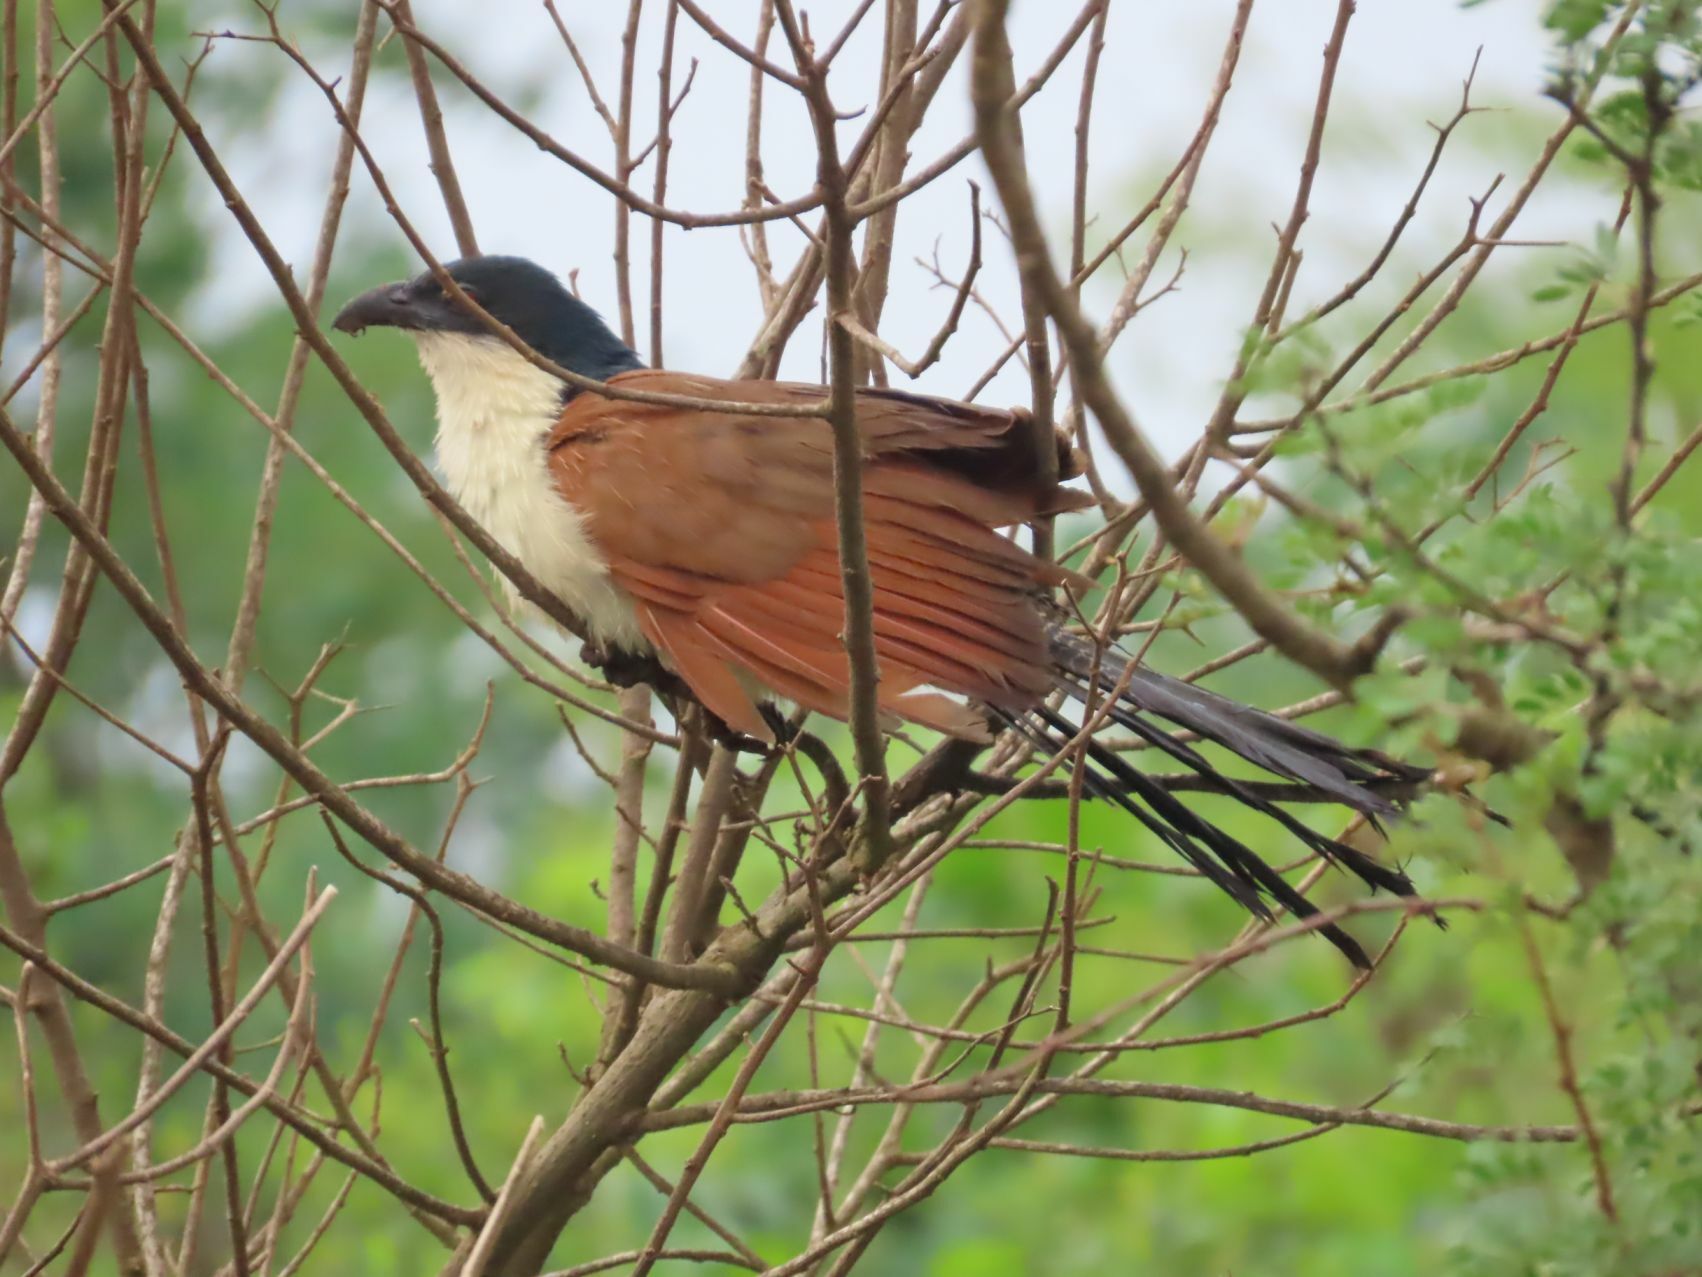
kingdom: Animalia
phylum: Chordata
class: Aves
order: Cuculiformes
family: Cuculidae
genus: Centropus
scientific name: Centropus superciliosus
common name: White-browed coucal
